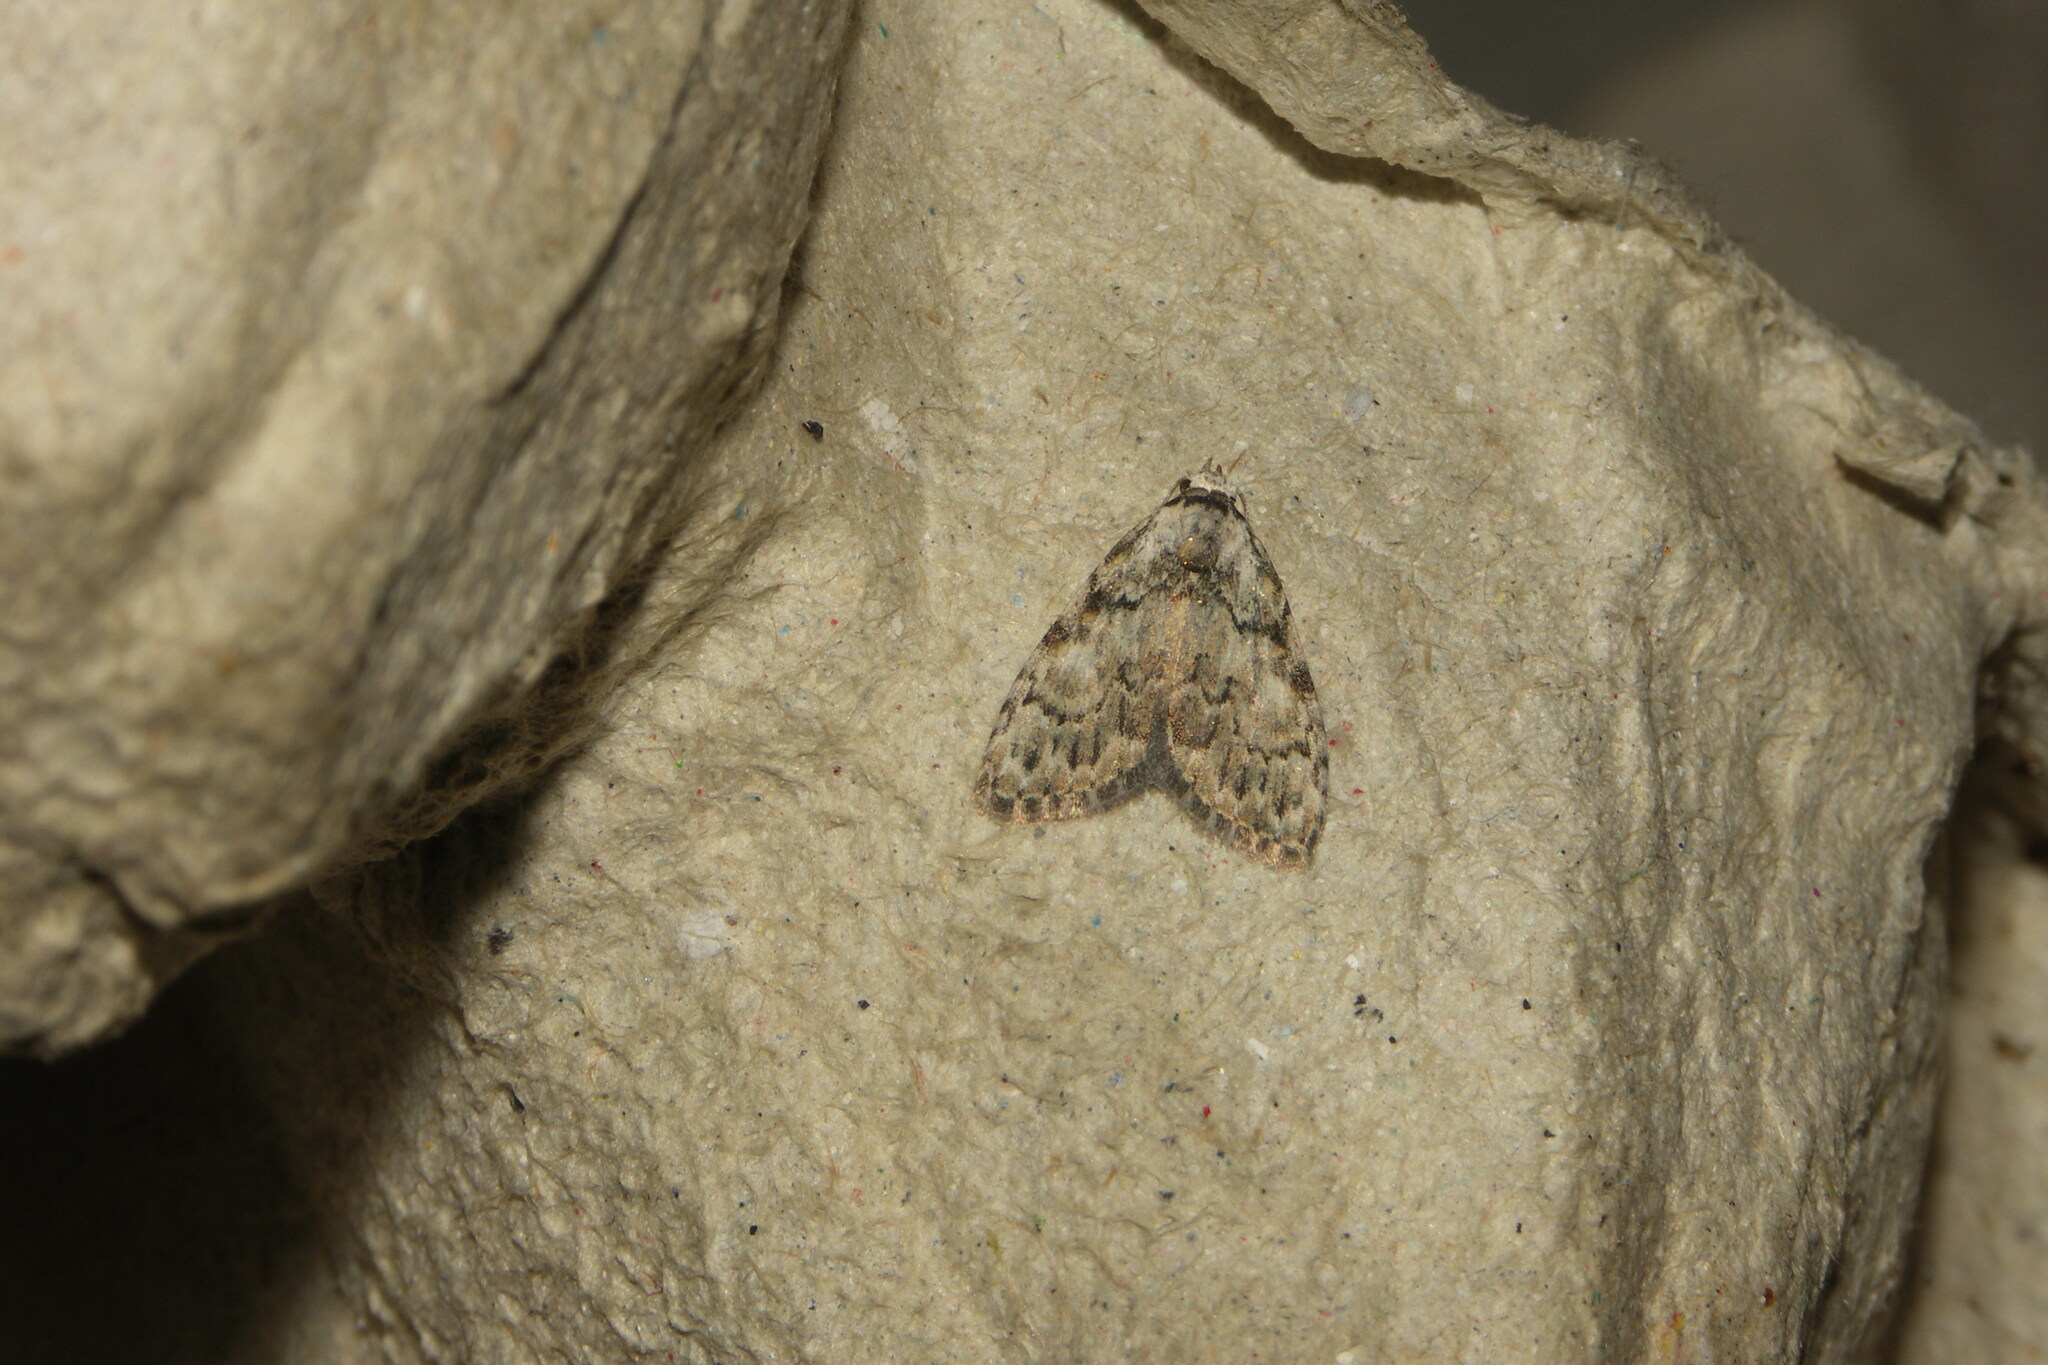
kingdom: Animalia
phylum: Arthropoda
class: Insecta
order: Lepidoptera
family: Nolidae
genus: Meganola
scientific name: Meganola strigula
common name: Small black arches
